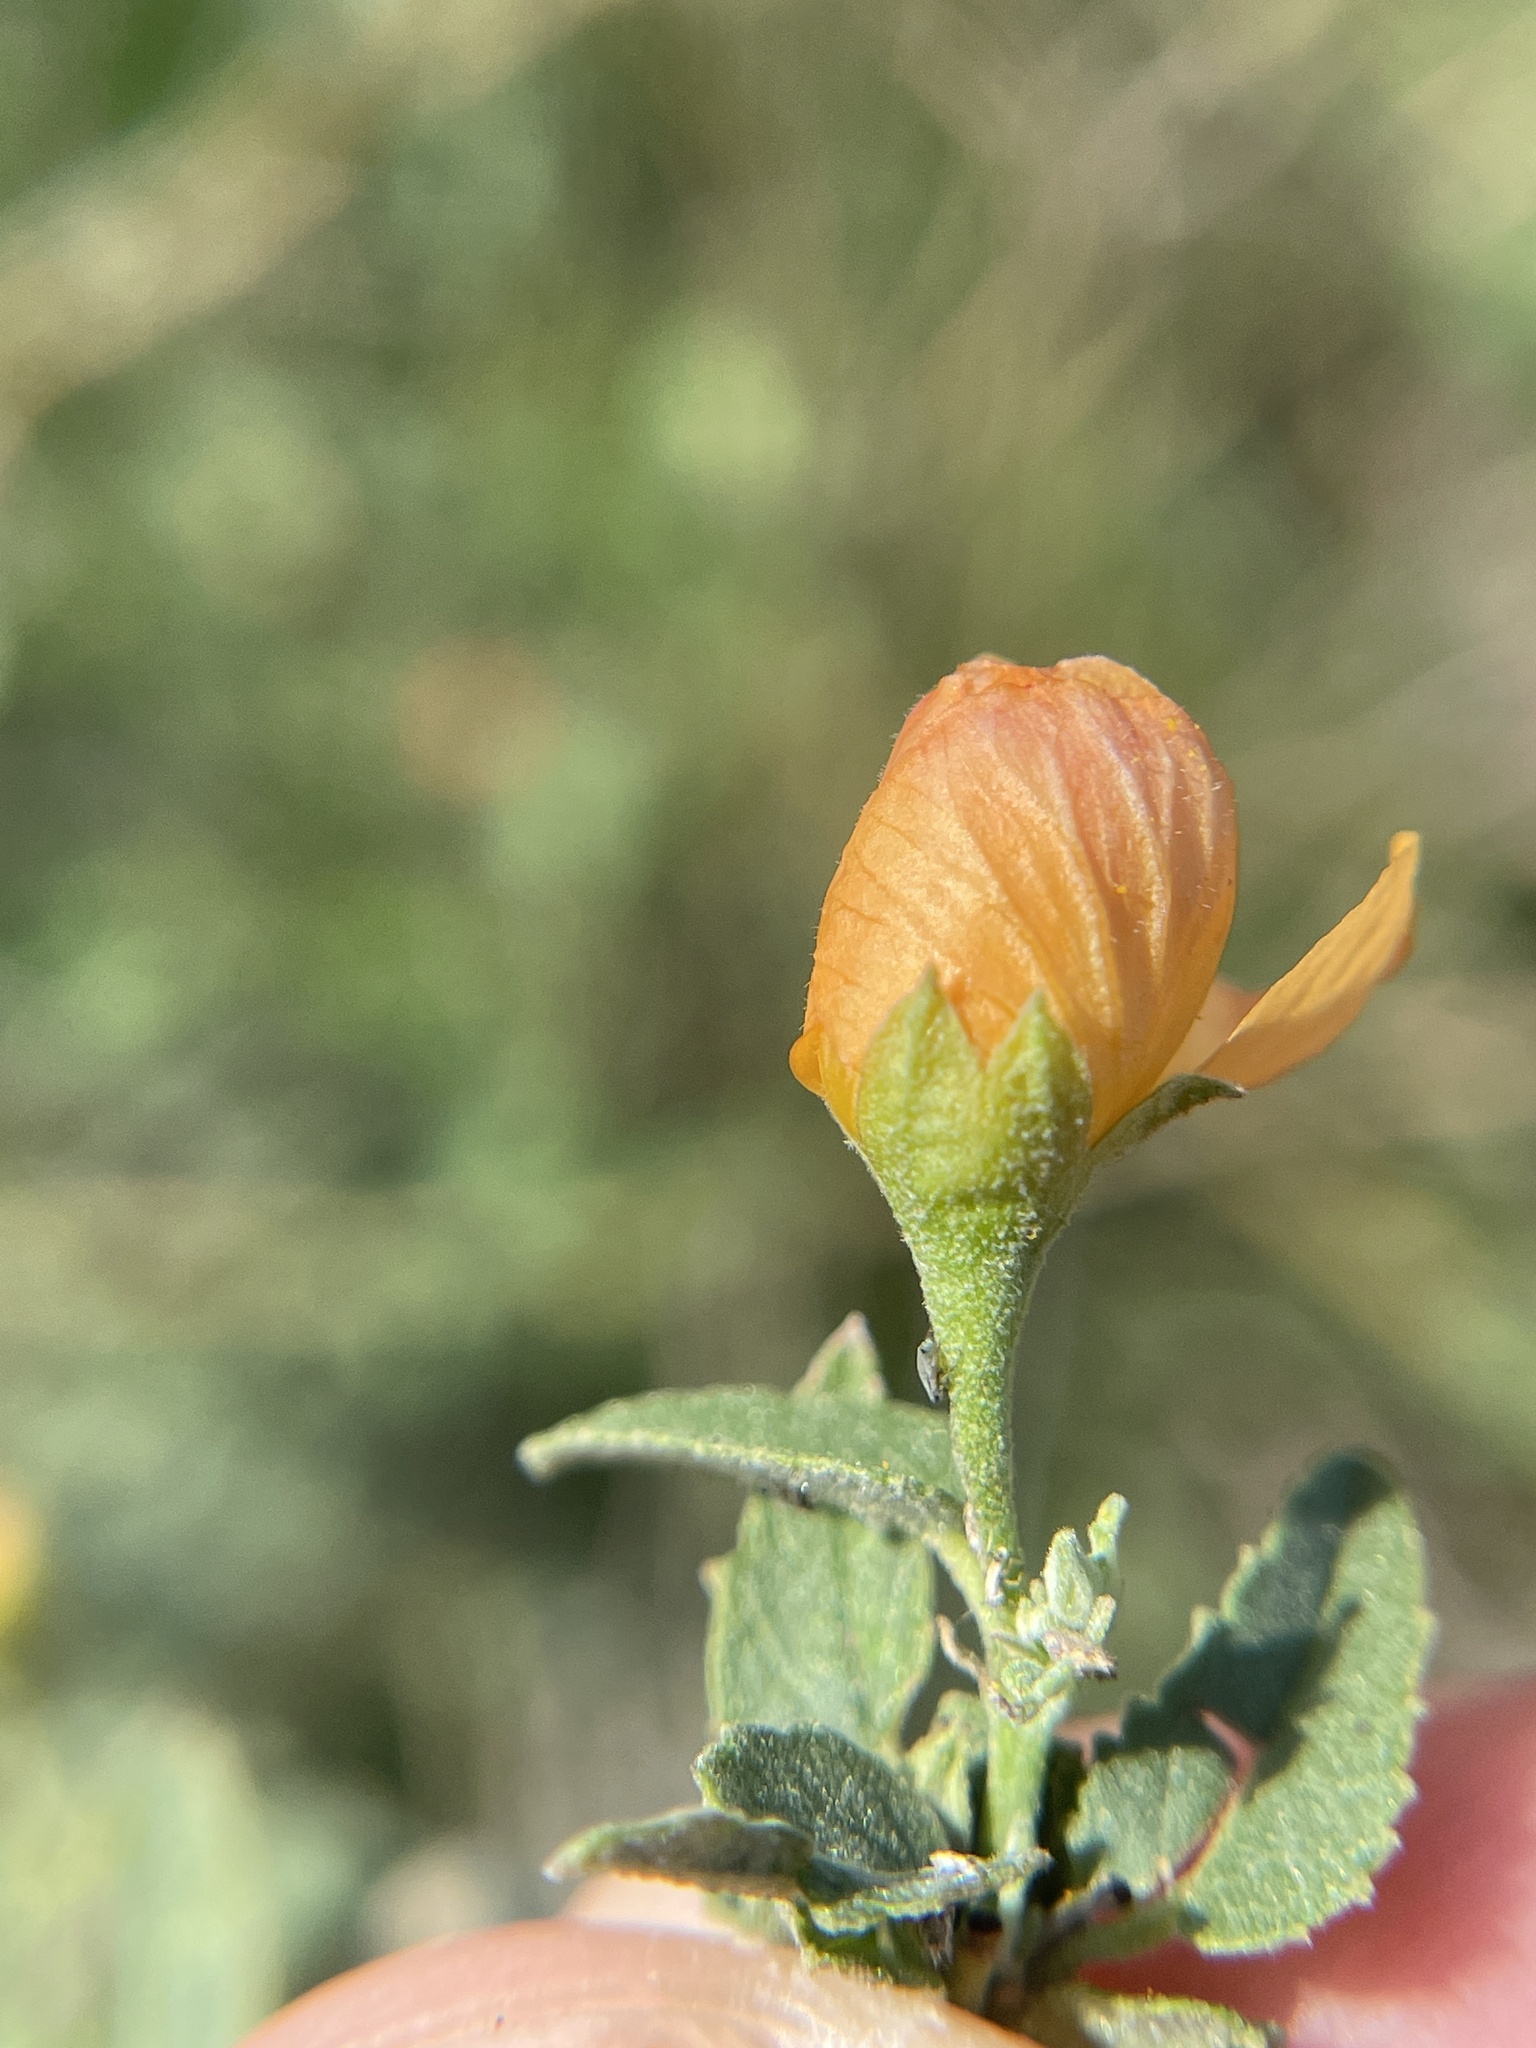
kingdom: Plantae
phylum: Tracheophyta
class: Magnoliopsida
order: Malvales
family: Malvaceae
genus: Abutilon
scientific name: Abutilon fruticosum
